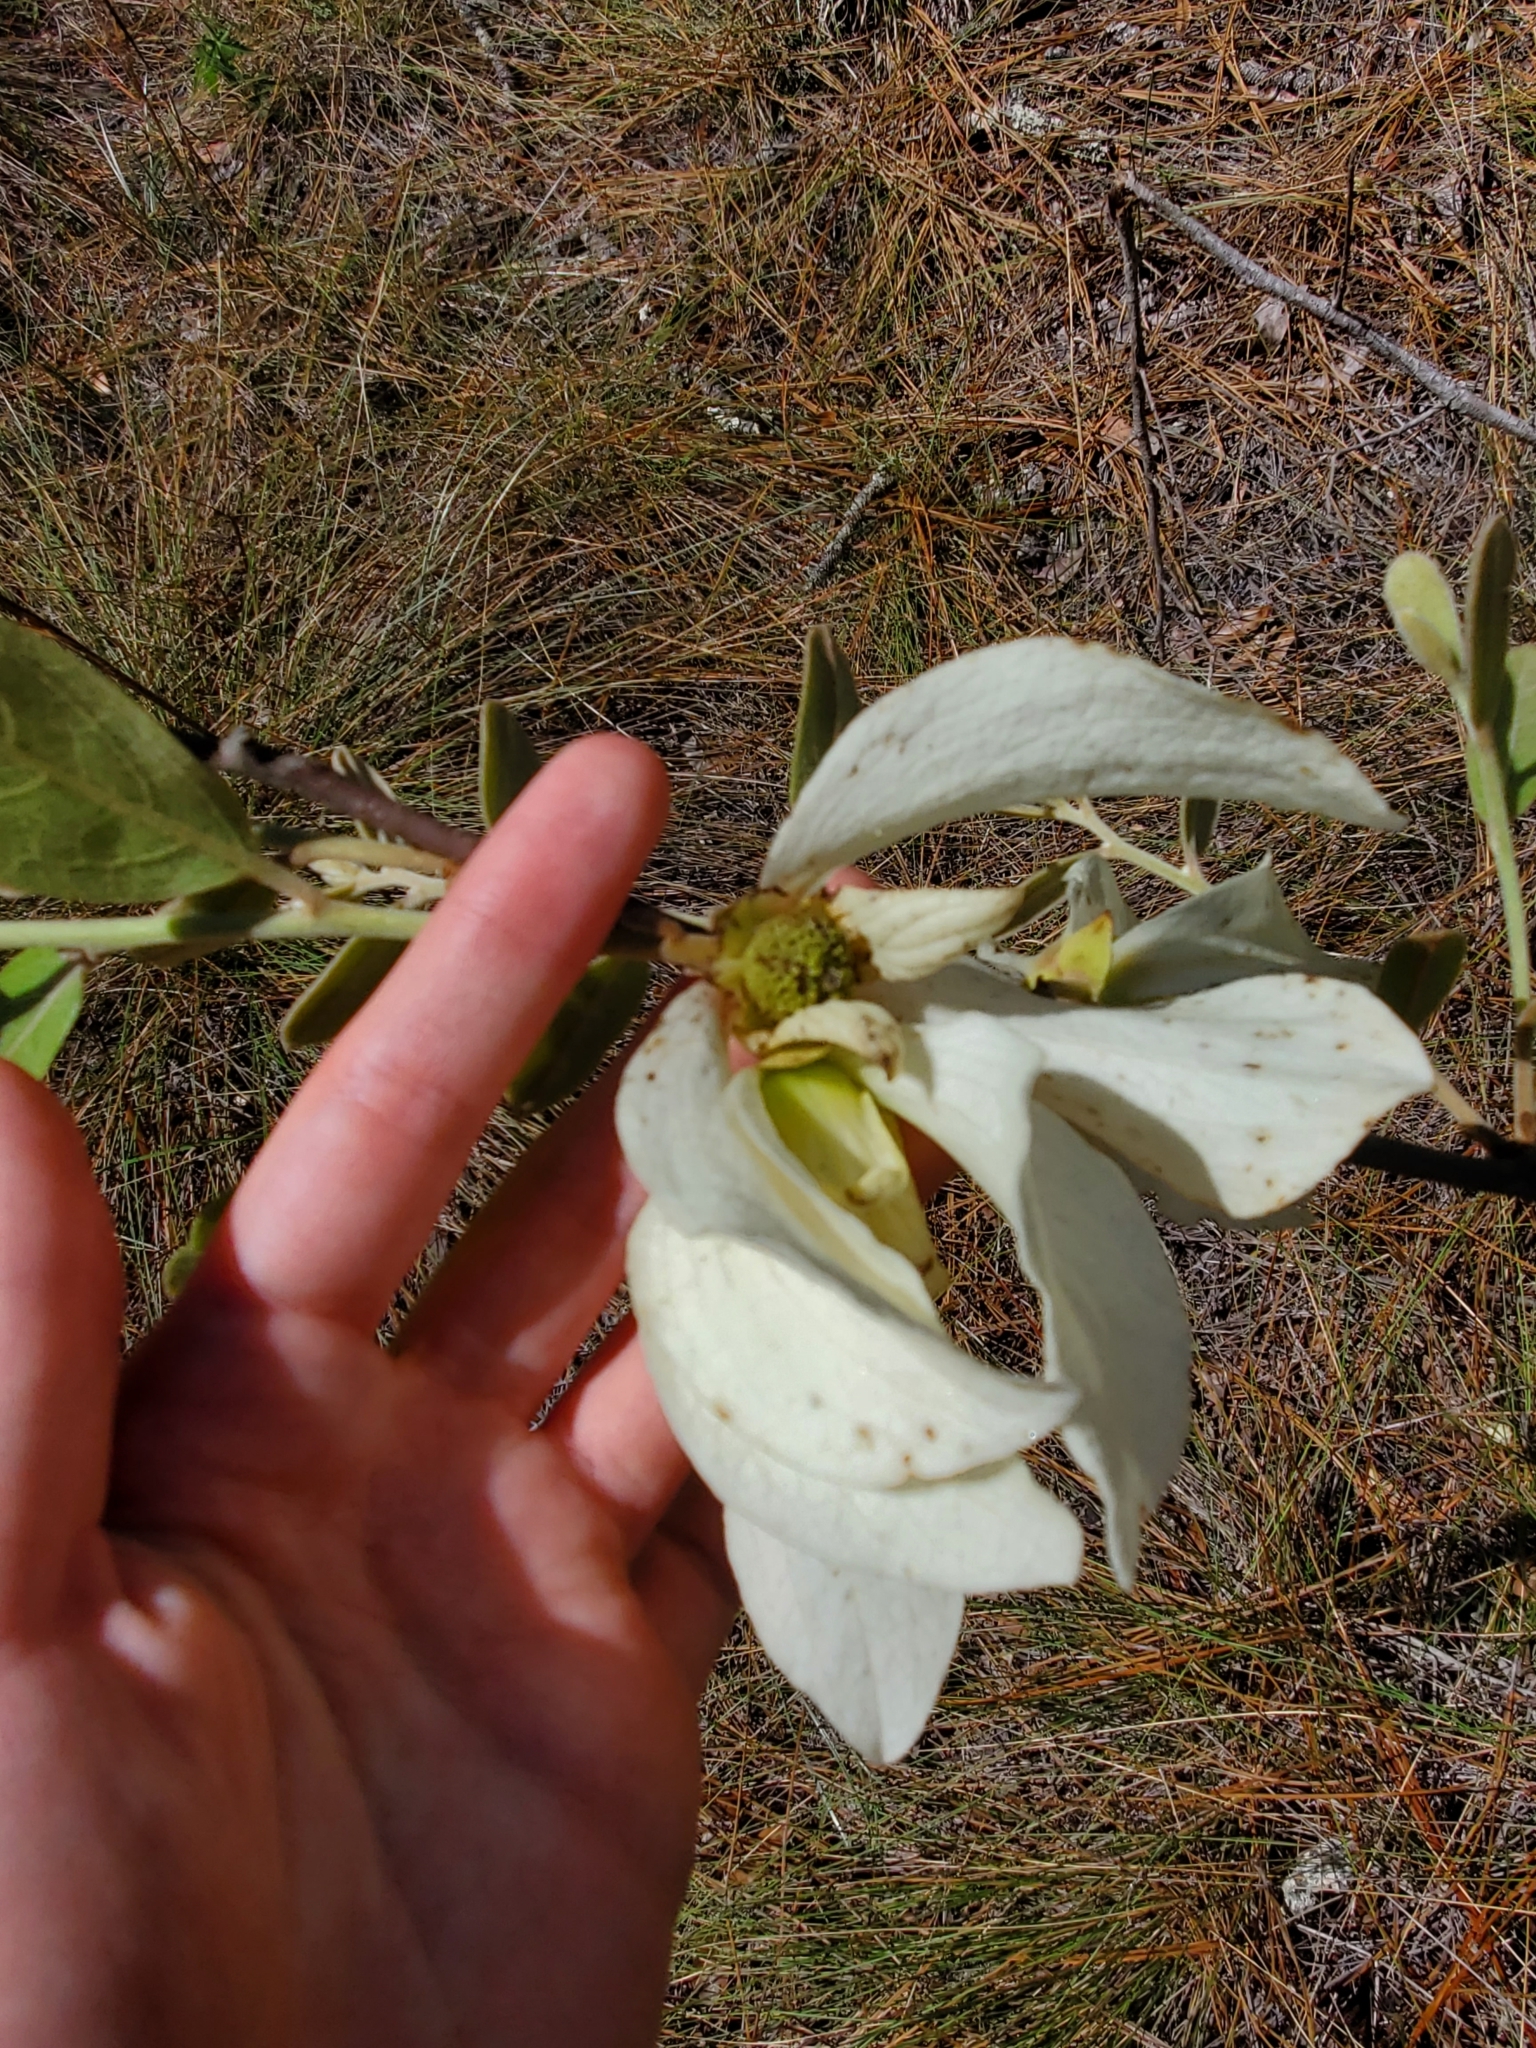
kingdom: Plantae
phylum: Tracheophyta
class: Magnoliopsida
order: Magnoliales
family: Annonaceae
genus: Asimina
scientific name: Asimina speciosa
